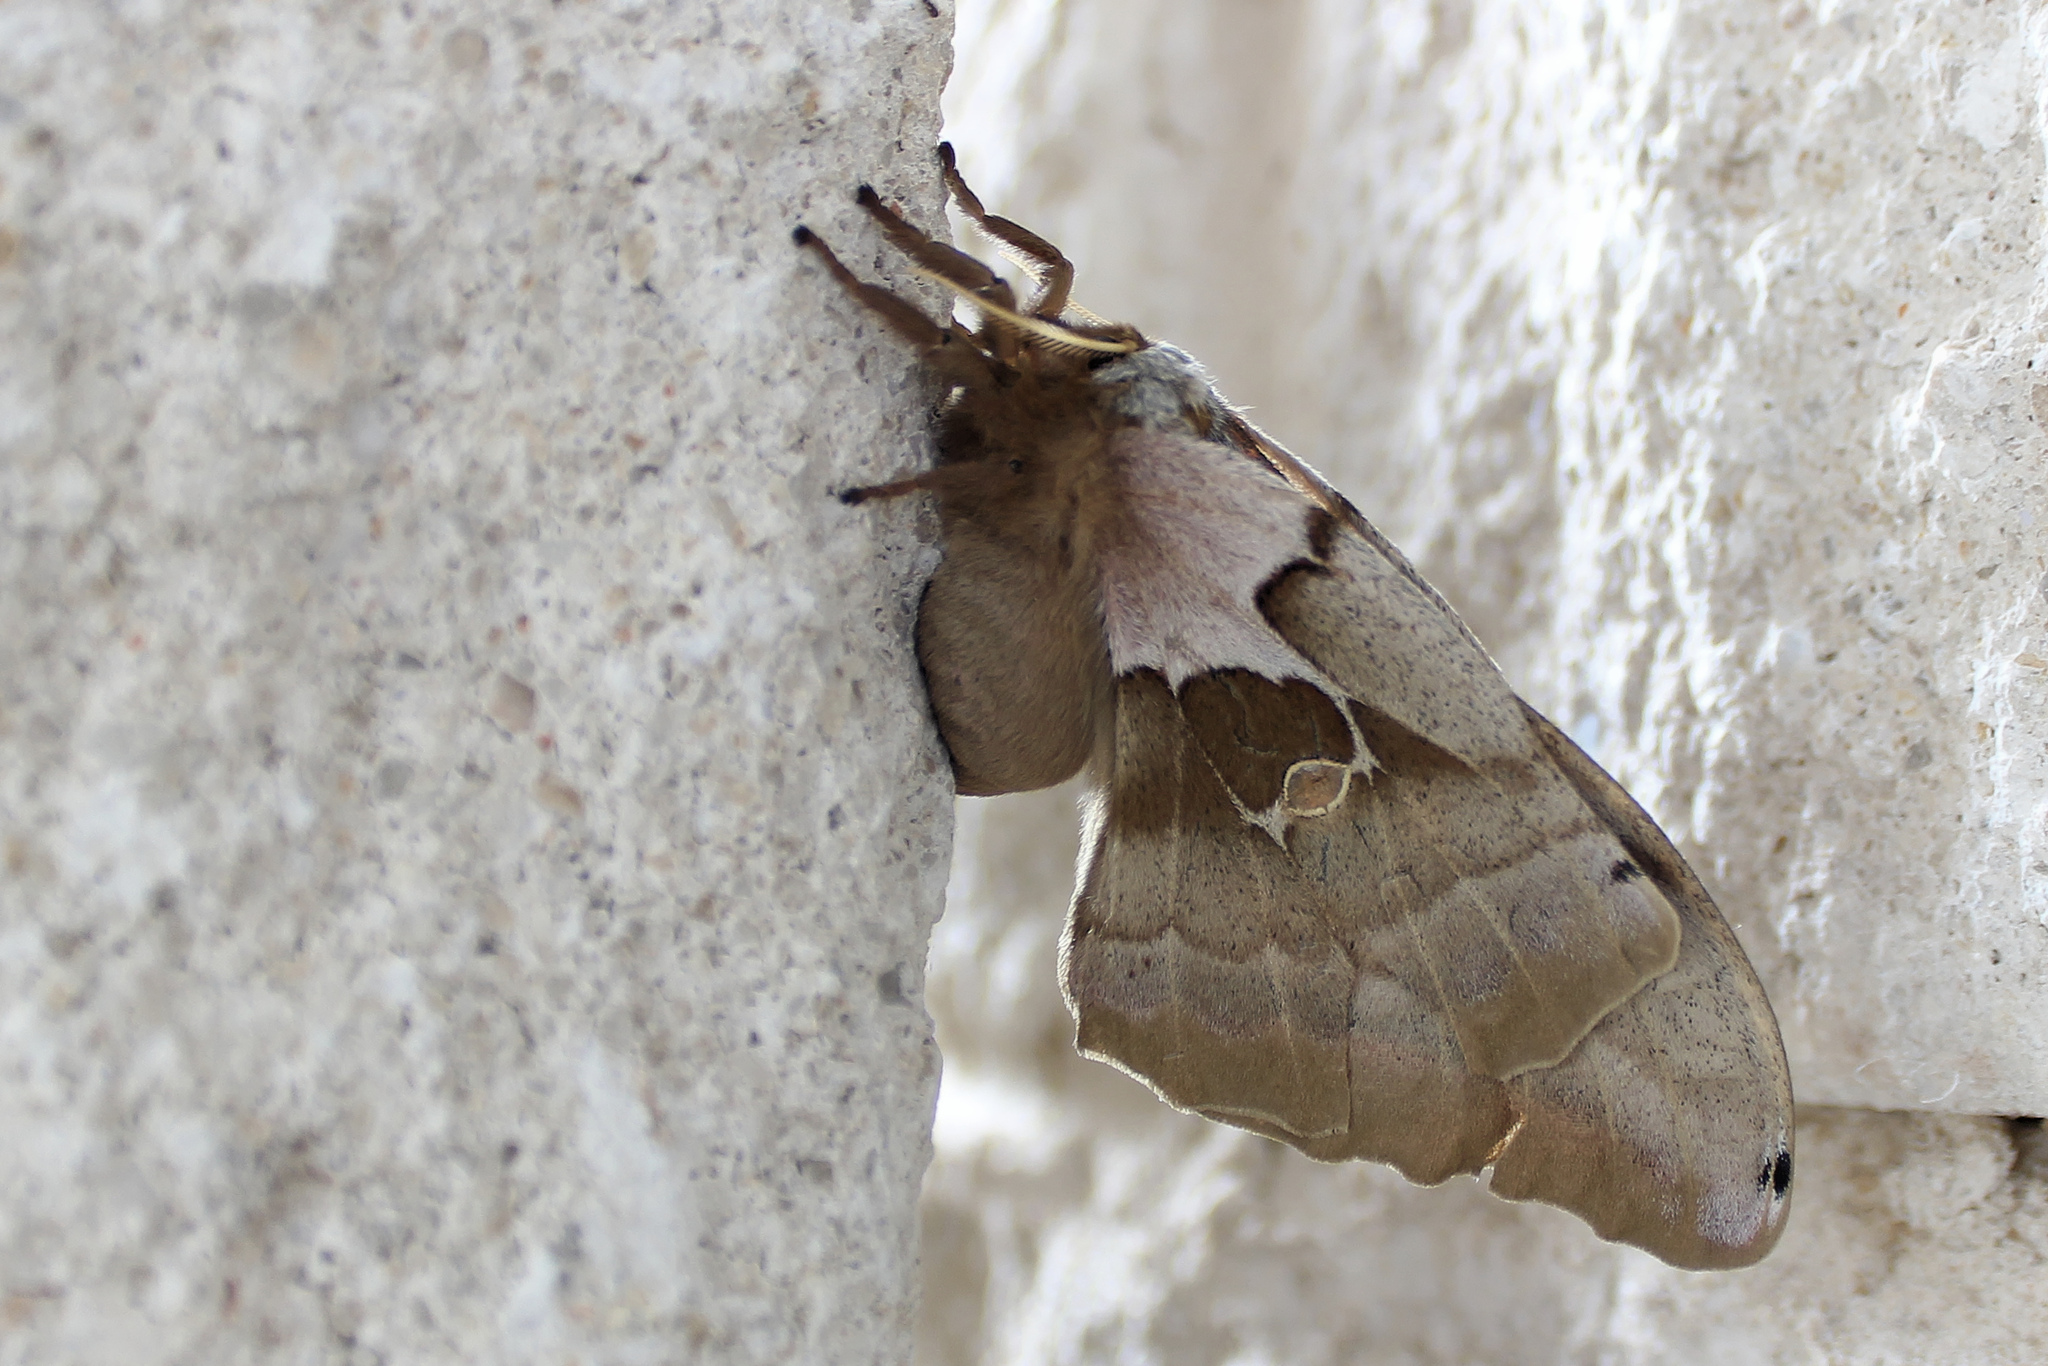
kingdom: Animalia
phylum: Arthropoda
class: Insecta
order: Lepidoptera
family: Saturniidae
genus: Antheraea
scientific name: Antheraea polyphemus
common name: Polyphemus moth
